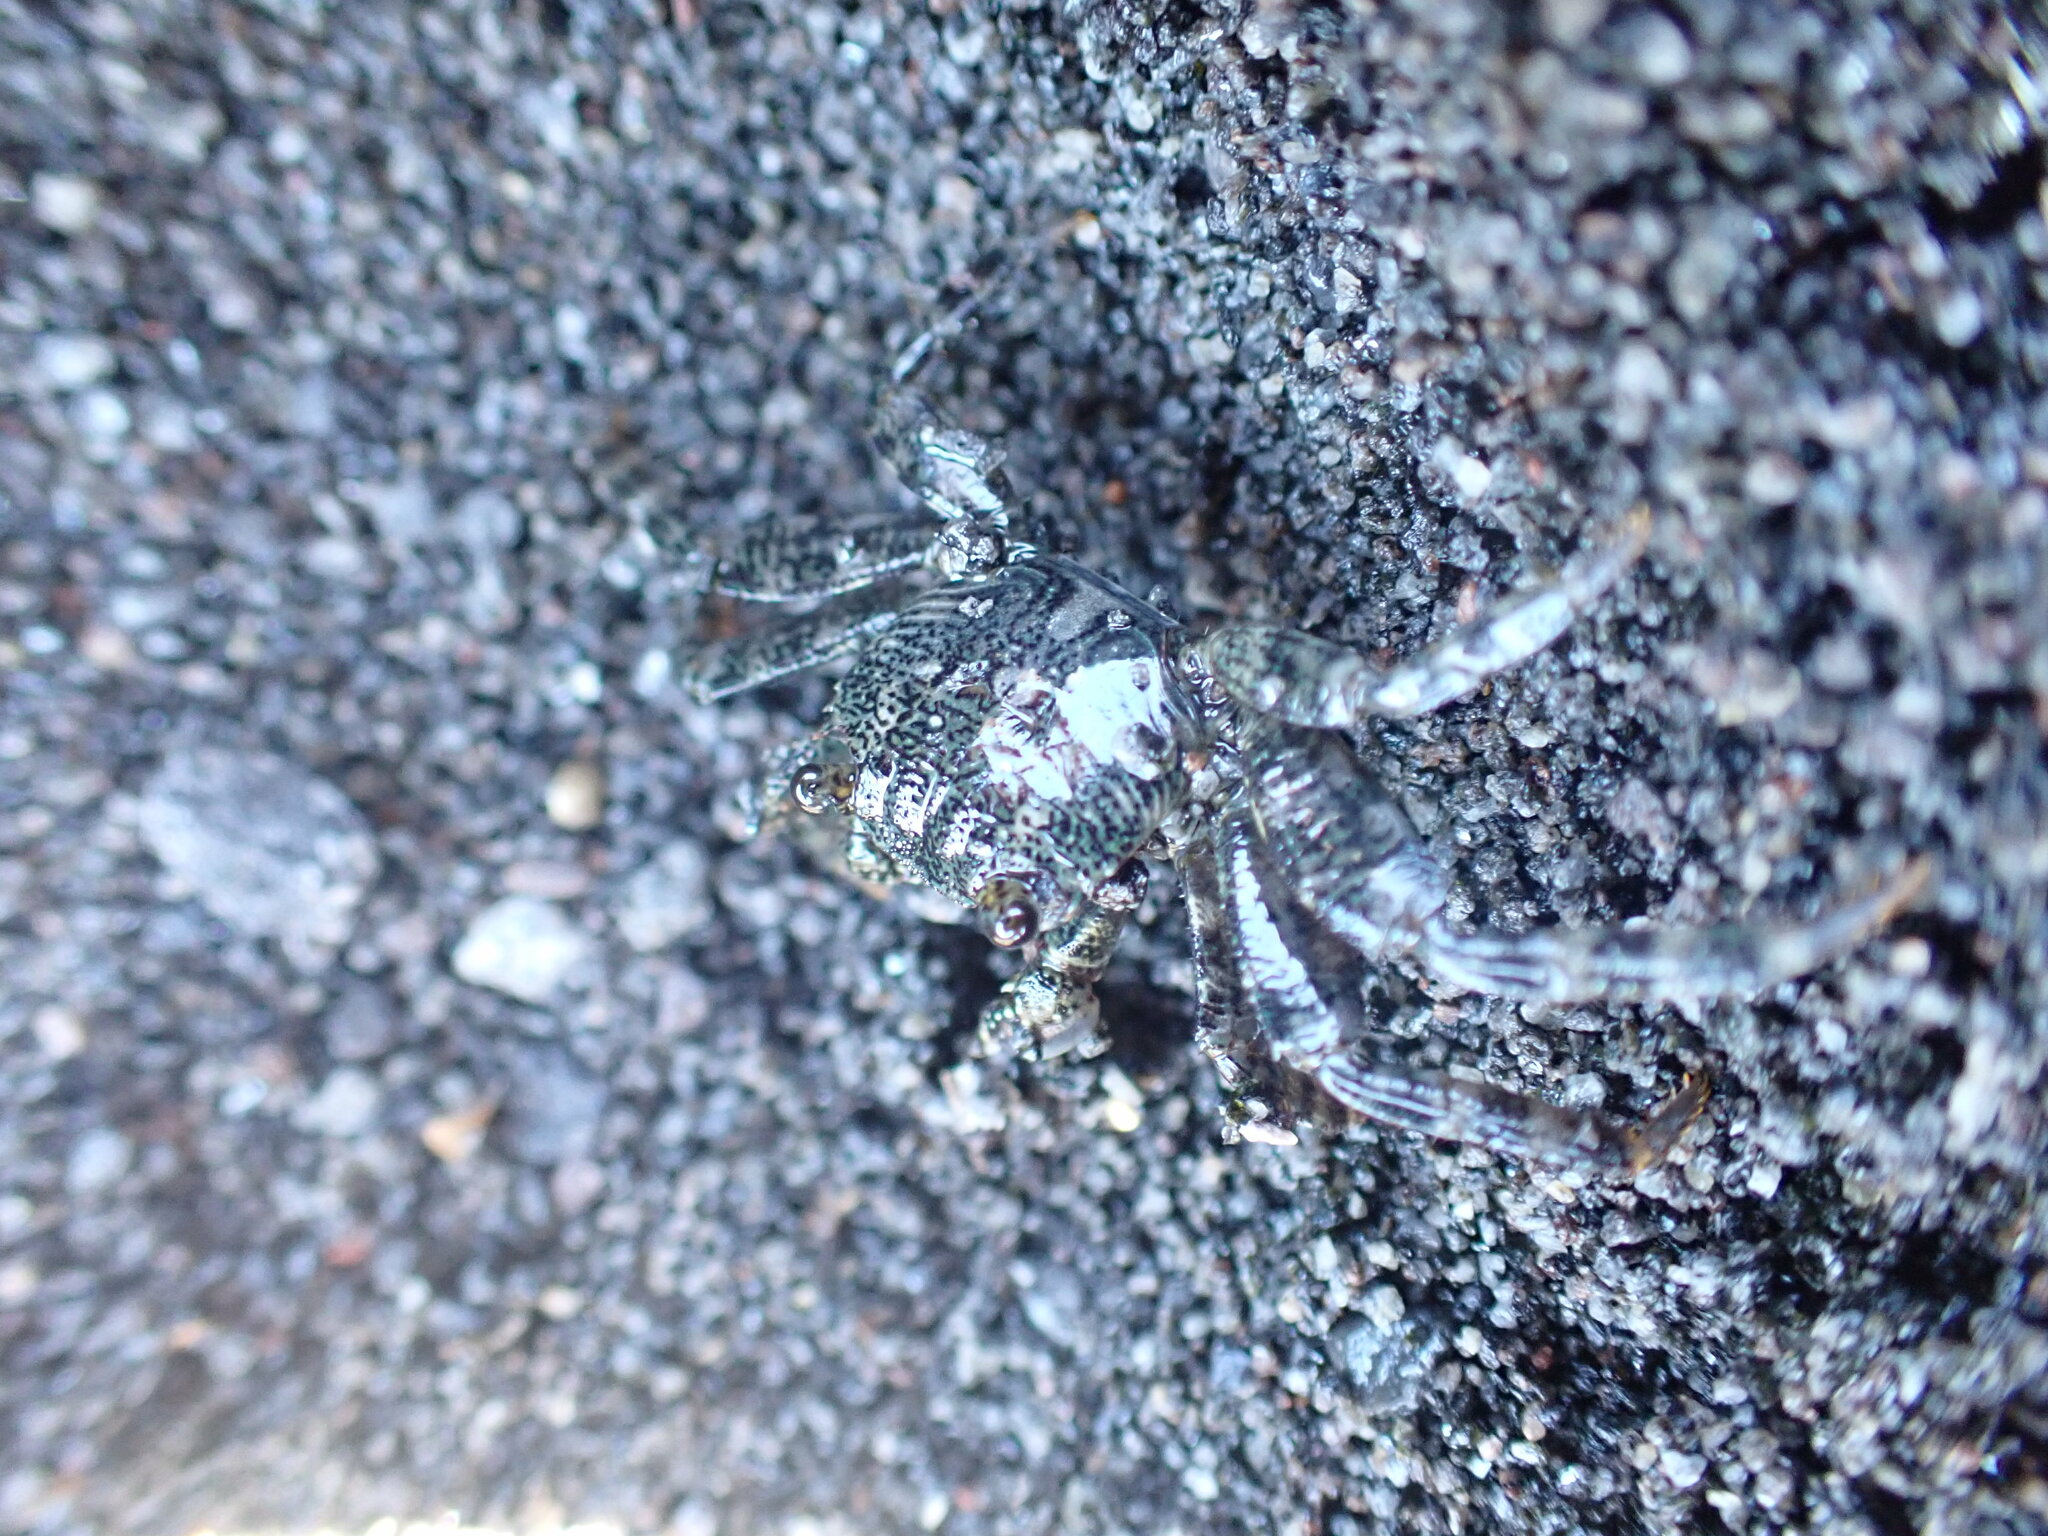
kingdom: Animalia
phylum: Arthropoda
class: Malacostraca
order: Decapoda
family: Grapsidae
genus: Leptograpsus
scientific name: Leptograpsus variegatus
